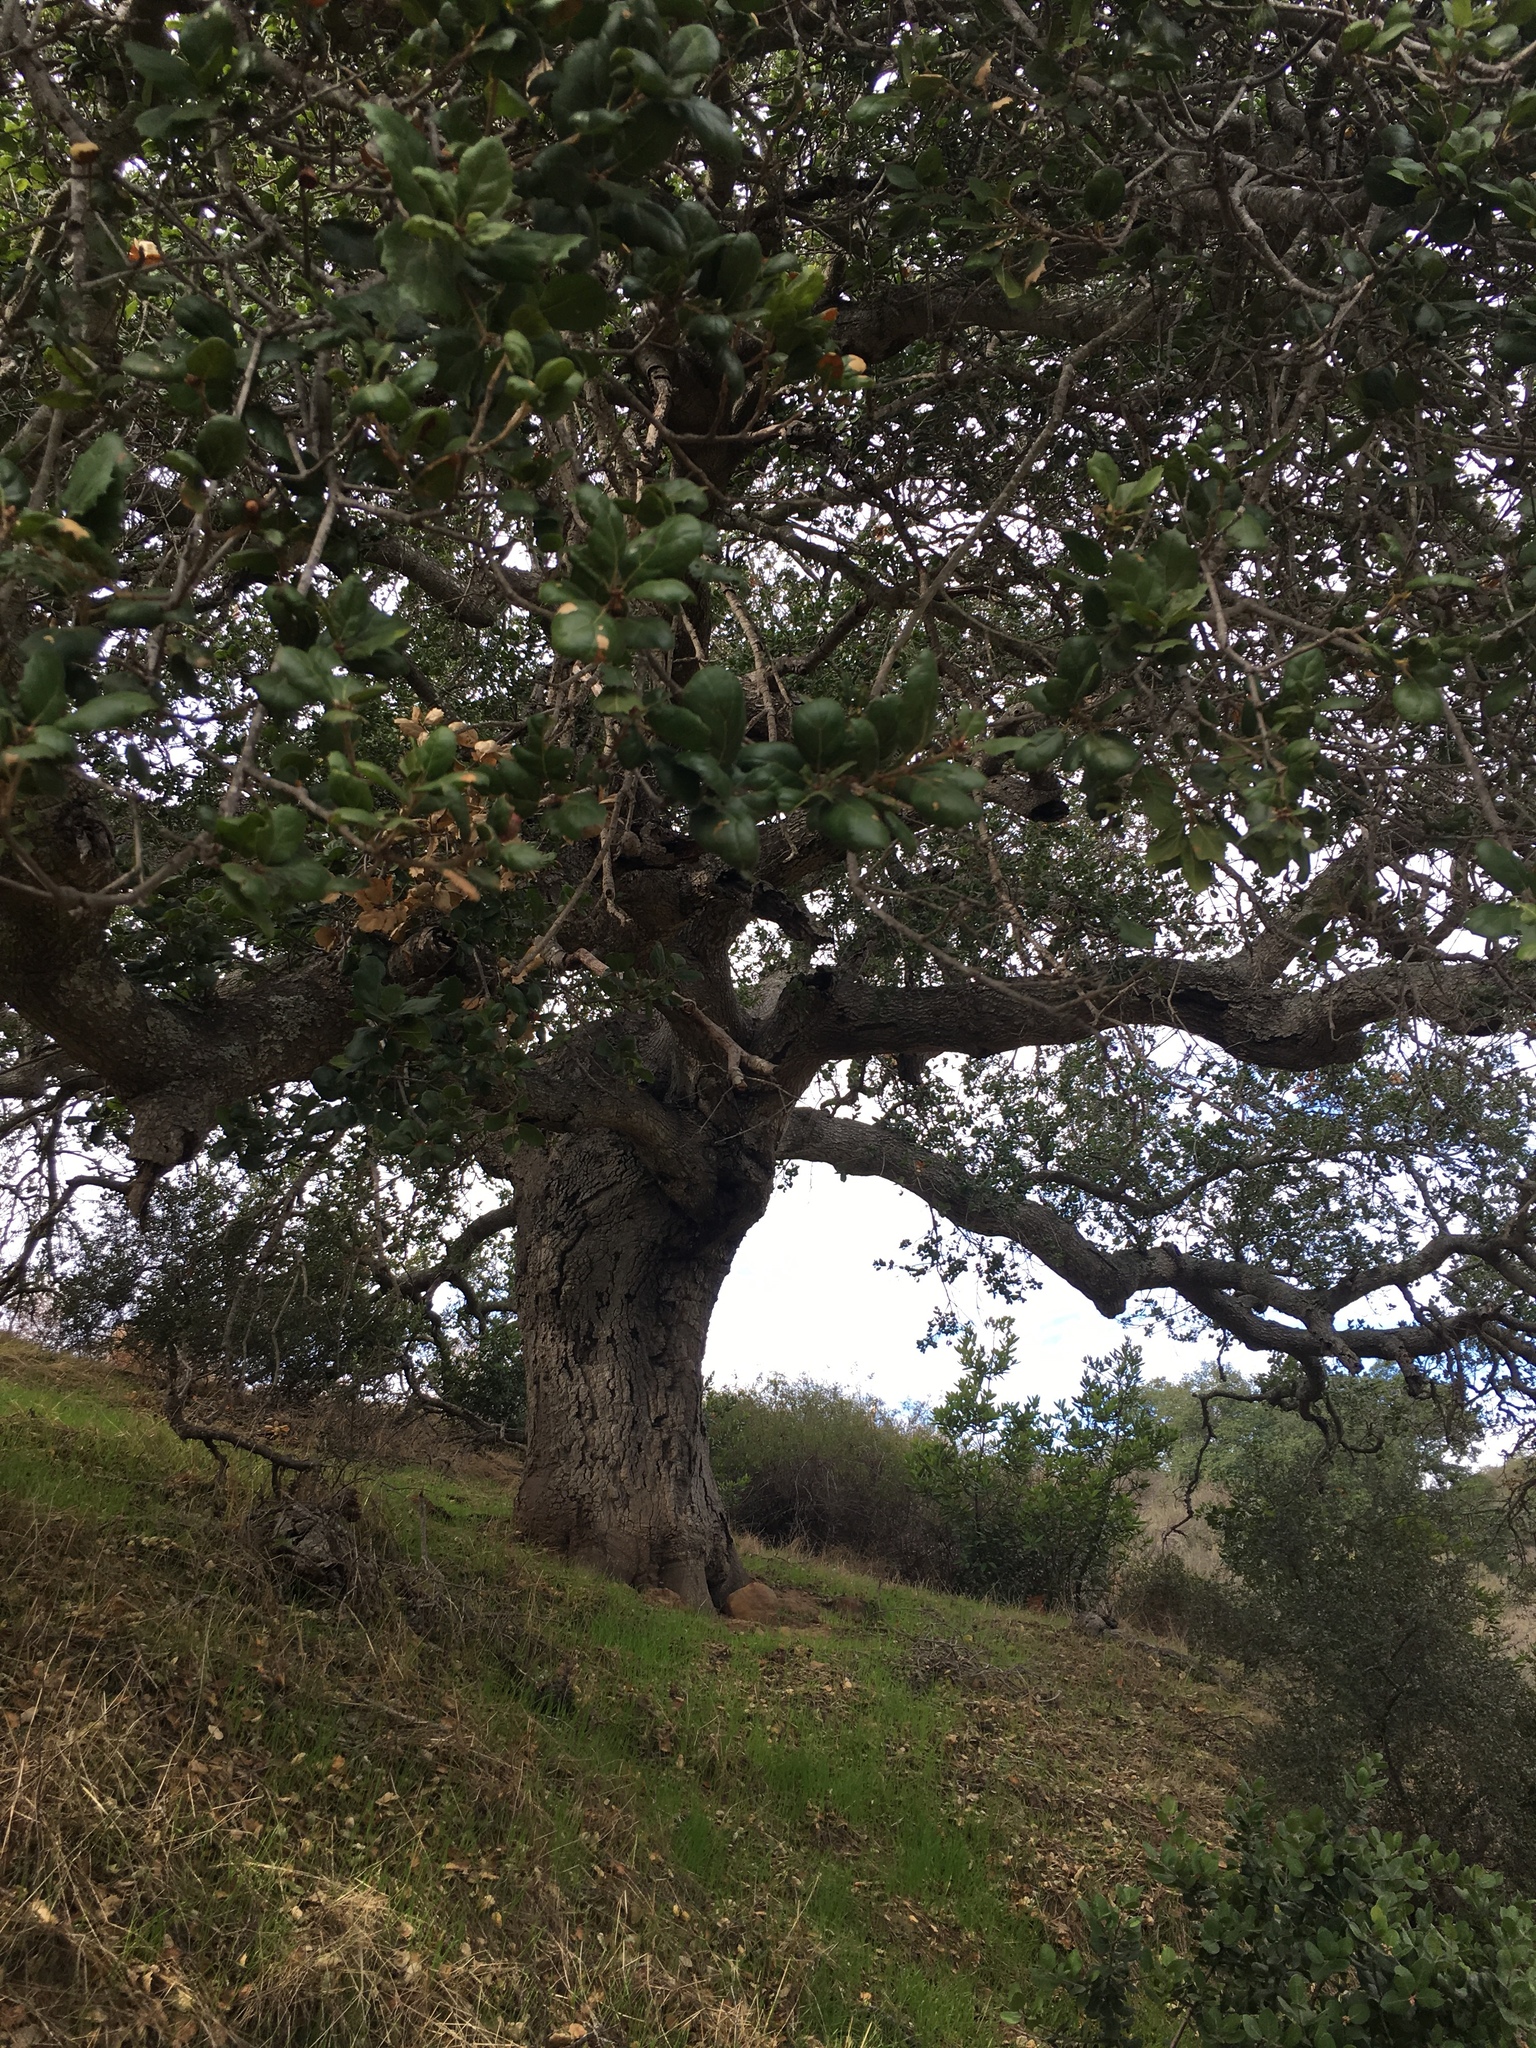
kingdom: Plantae
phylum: Tracheophyta
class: Magnoliopsida
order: Fagales
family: Fagaceae
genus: Quercus
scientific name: Quercus agrifolia
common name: California live oak
